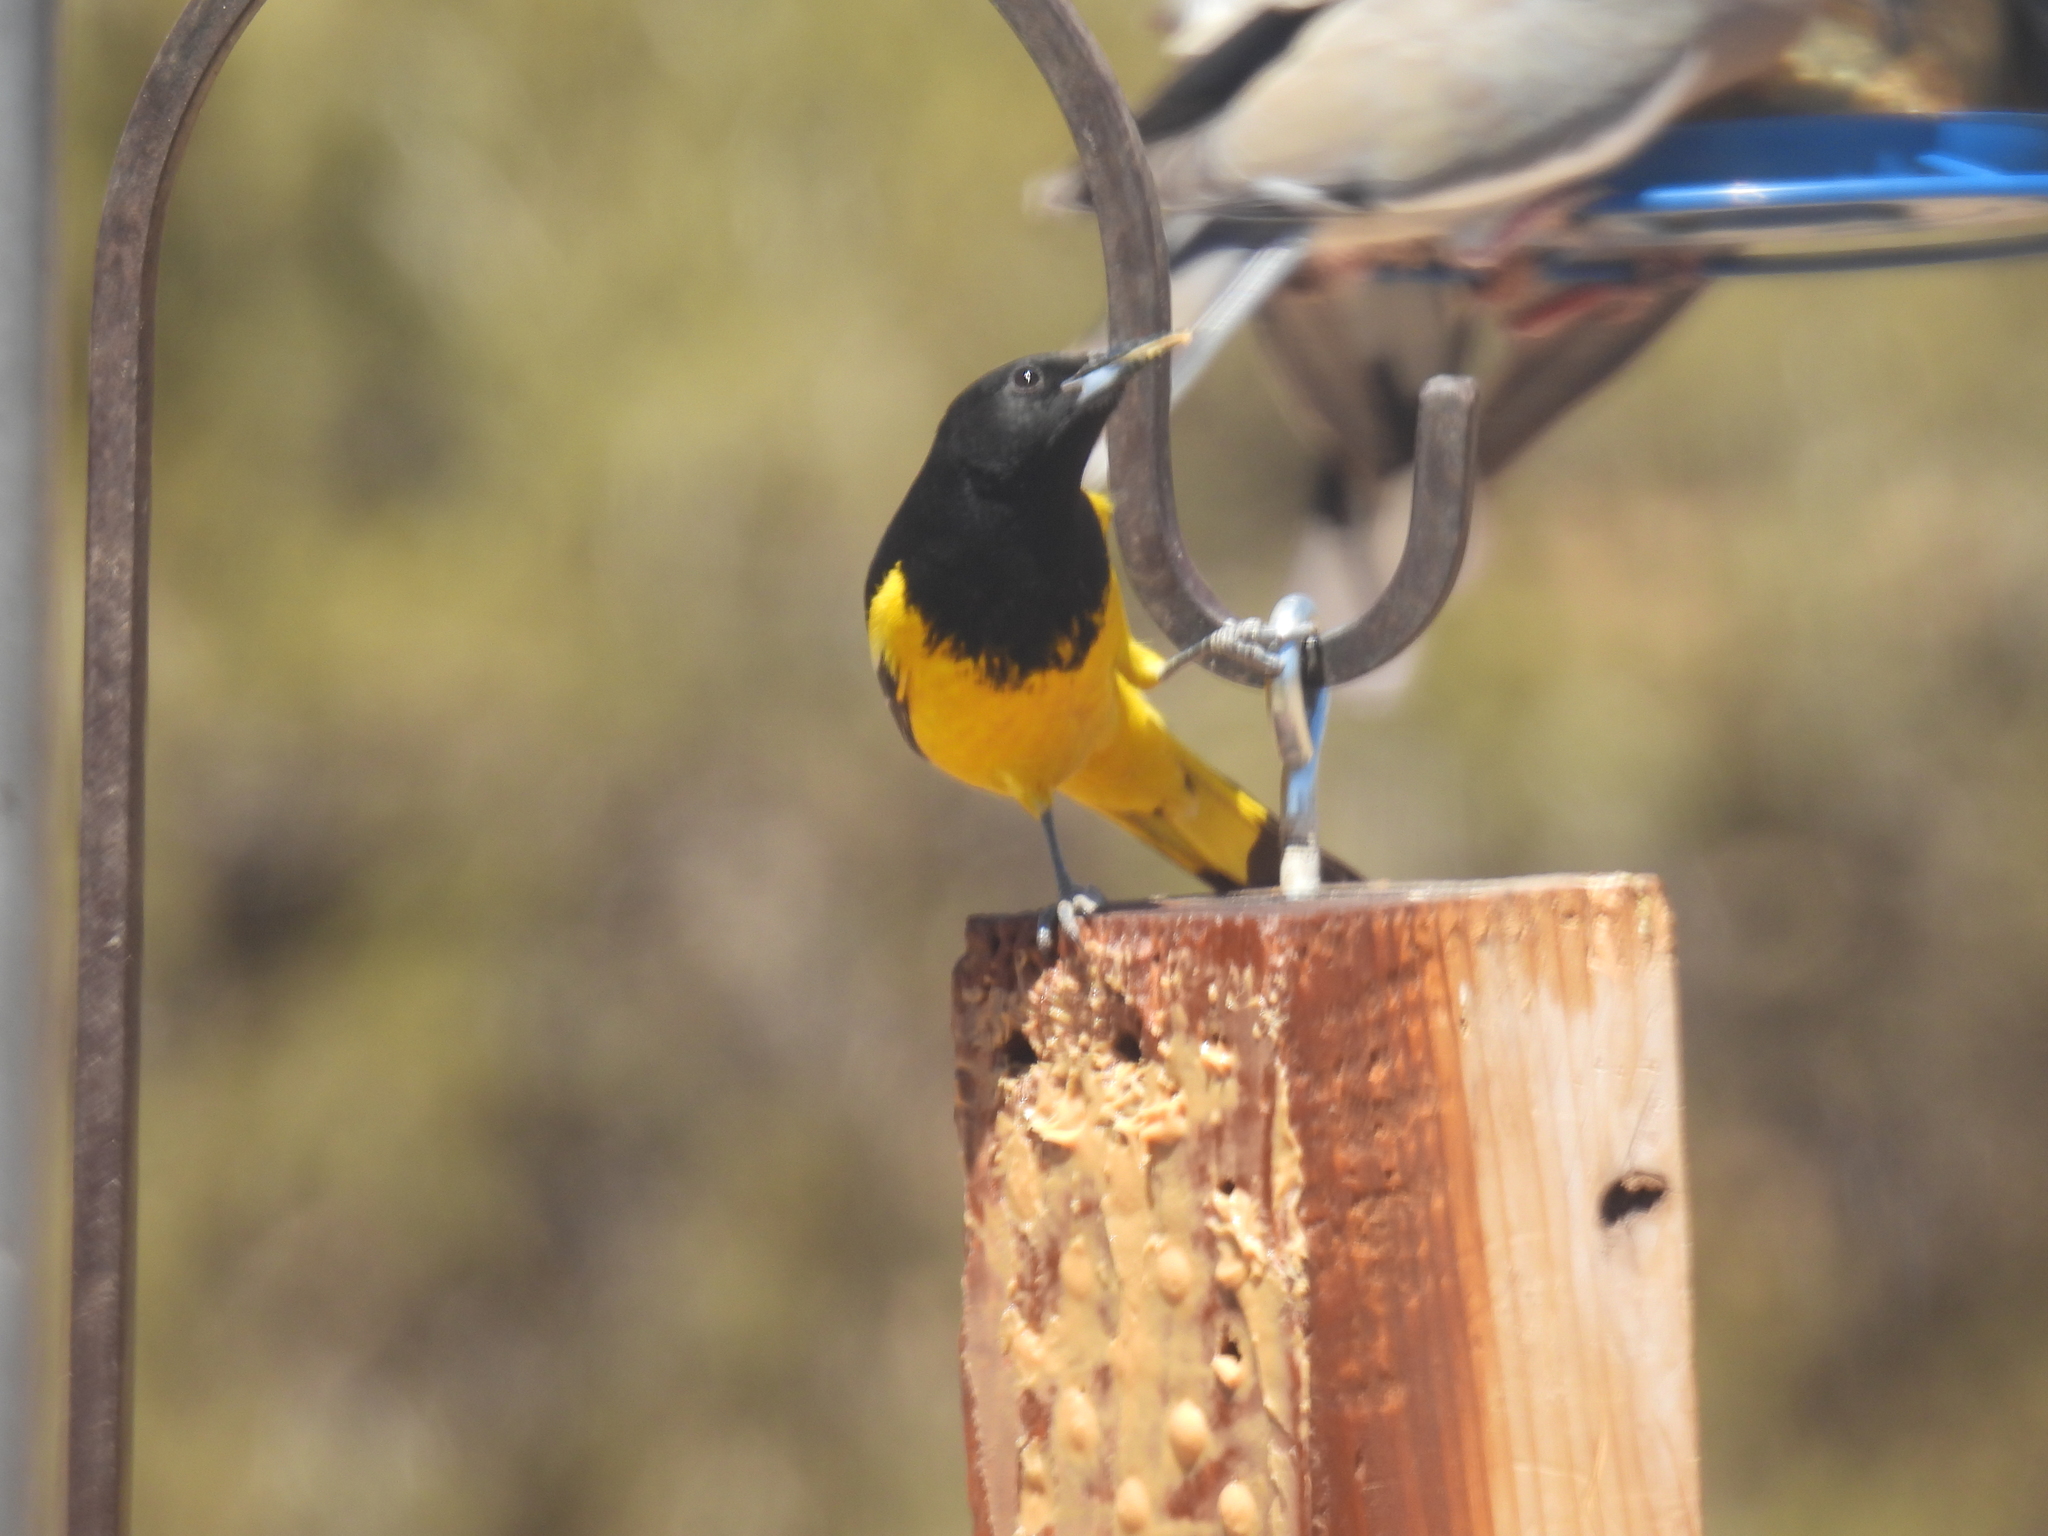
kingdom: Animalia
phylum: Chordata
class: Aves
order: Passeriformes
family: Icteridae
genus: Icterus
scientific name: Icterus parisorum
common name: Scott's oriole
